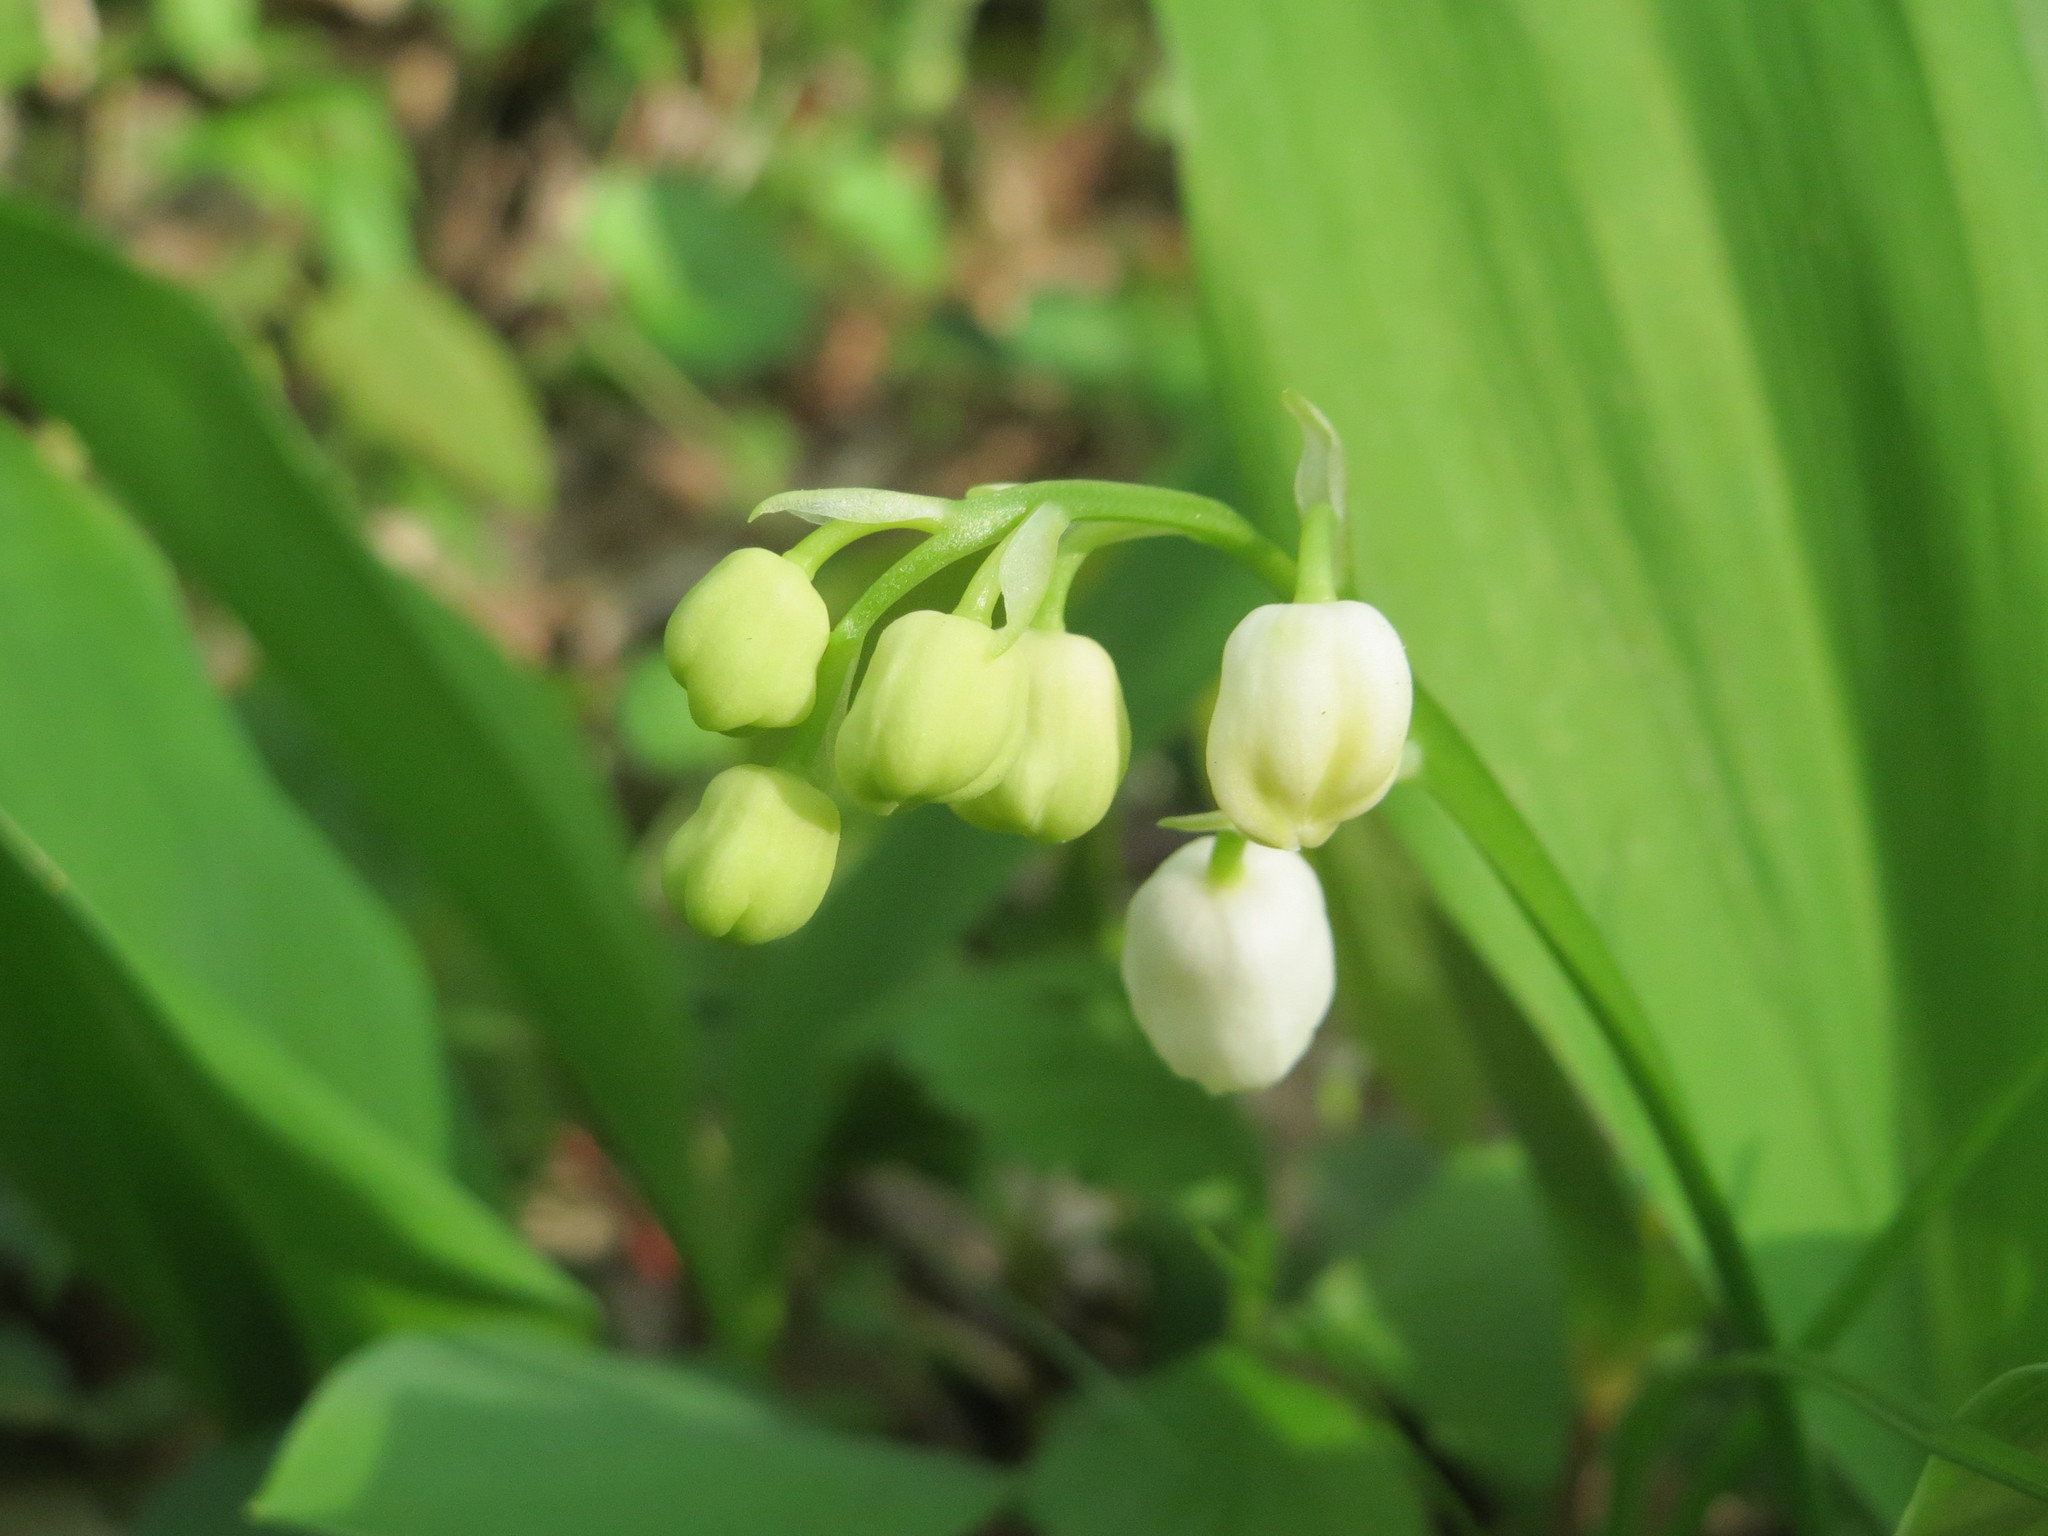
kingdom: Plantae
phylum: Tracheophyta
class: Liliopsida
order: Asparagales
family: Asparagaceae
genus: Convallaria
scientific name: Convallaria majalis
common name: Lily-of-the-valley
